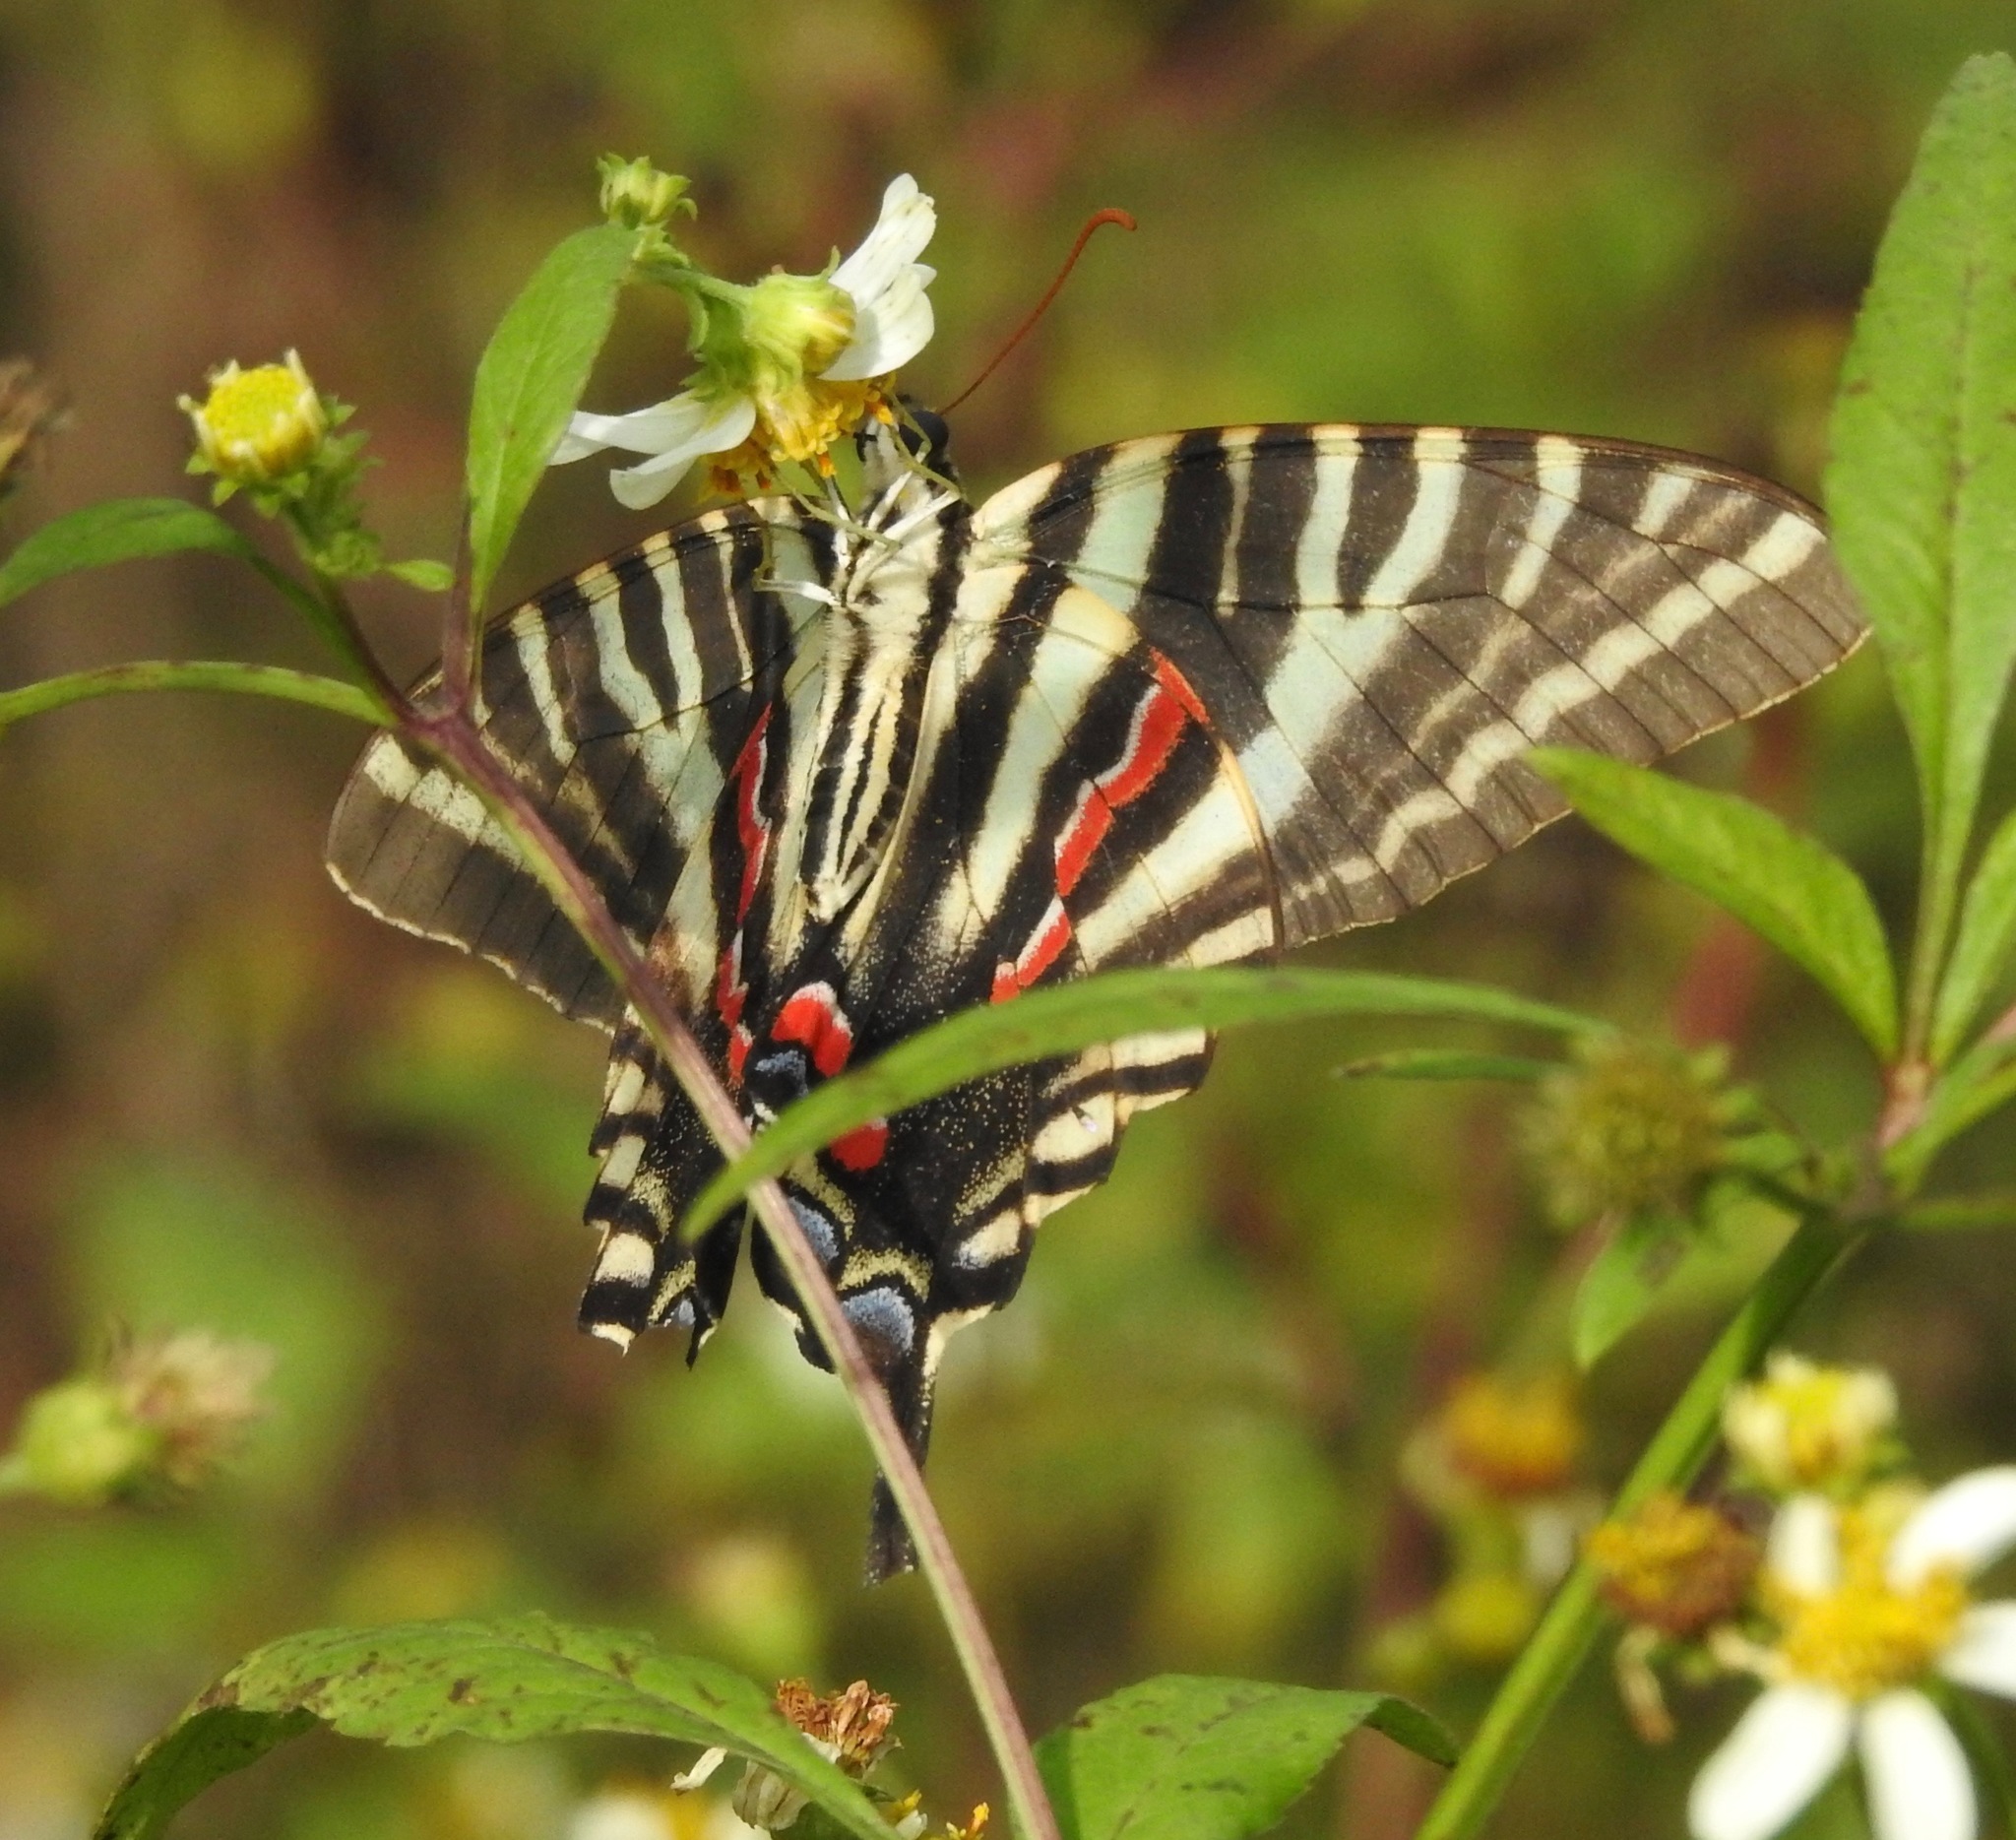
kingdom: Animalia
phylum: Arthropoda
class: Insecta
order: Lepidoptera
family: Papilionidae
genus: Protographium
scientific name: Protographium marcellus
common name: Zebra swallowtail
